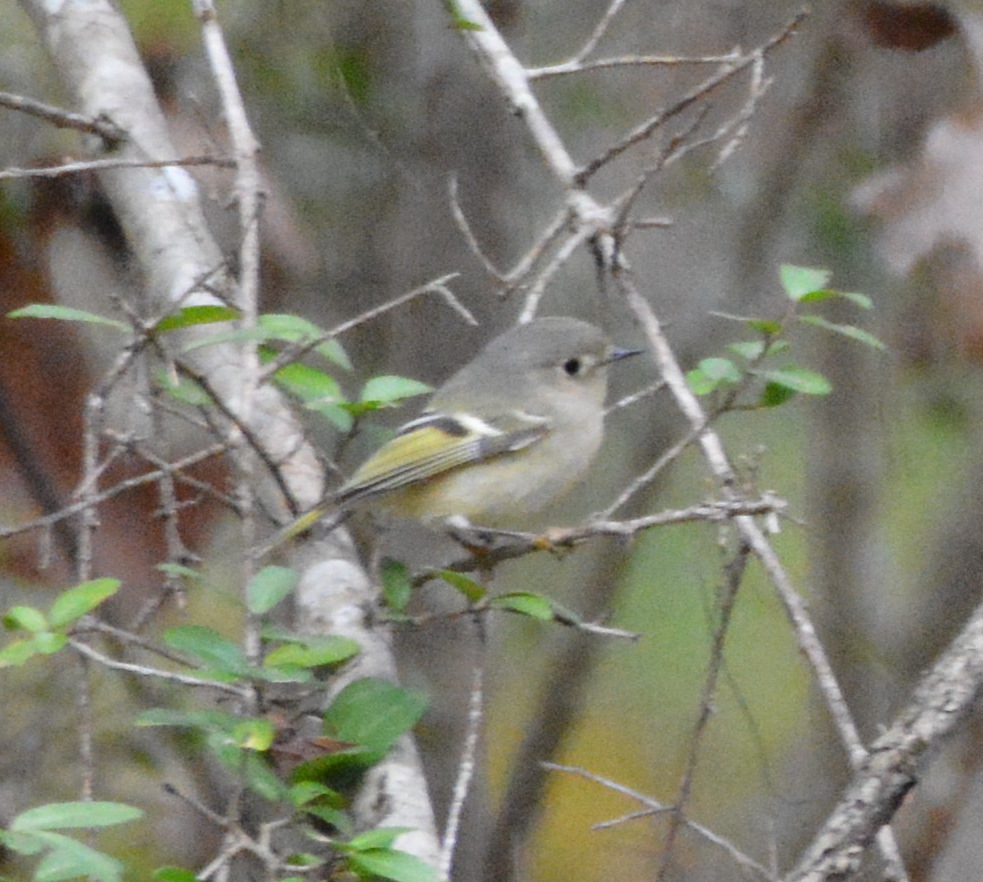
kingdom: Animalia
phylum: Chordata
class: Aves
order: Passeriformes
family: Regulidae
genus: Regulus
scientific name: Regulus calendula
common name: Ruby-crowned kinglet
